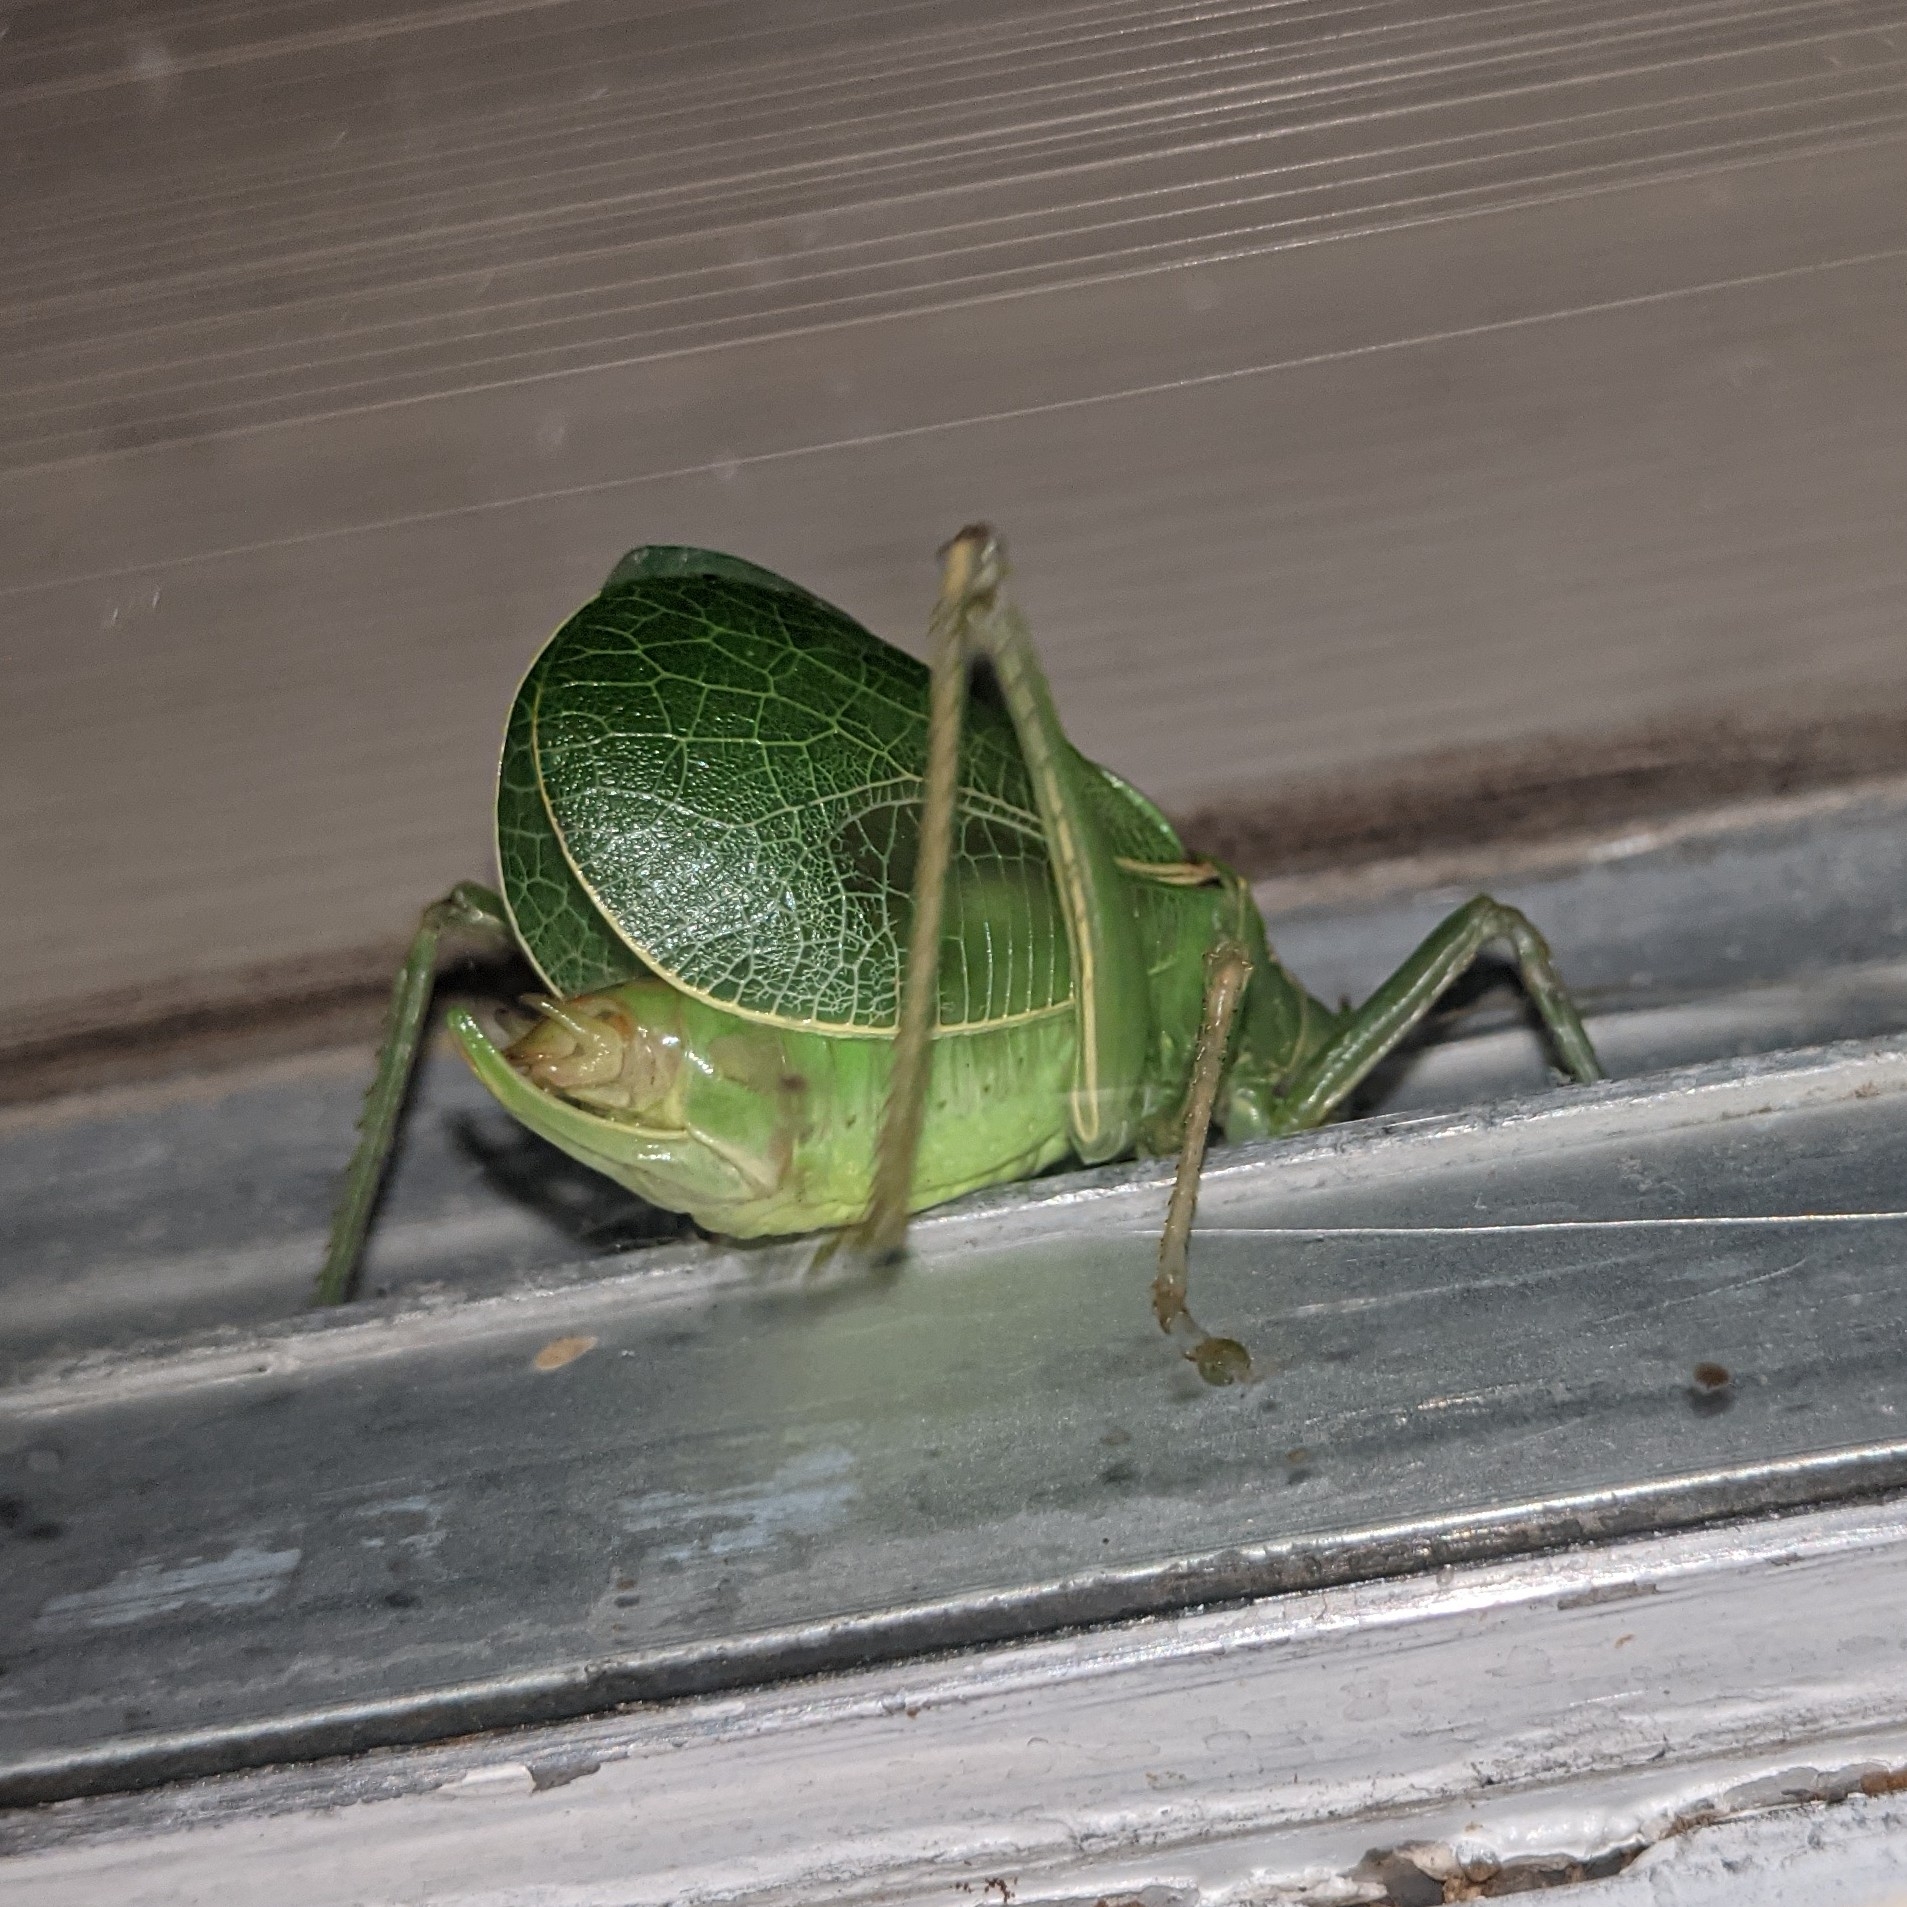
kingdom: Animalia
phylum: Arthropoda
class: Insecta
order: Orthoptera
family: Tettigoniidae
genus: Paracyrtophyllus
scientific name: Paracyrtophyllus robustus
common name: Central texas leaf katydid
